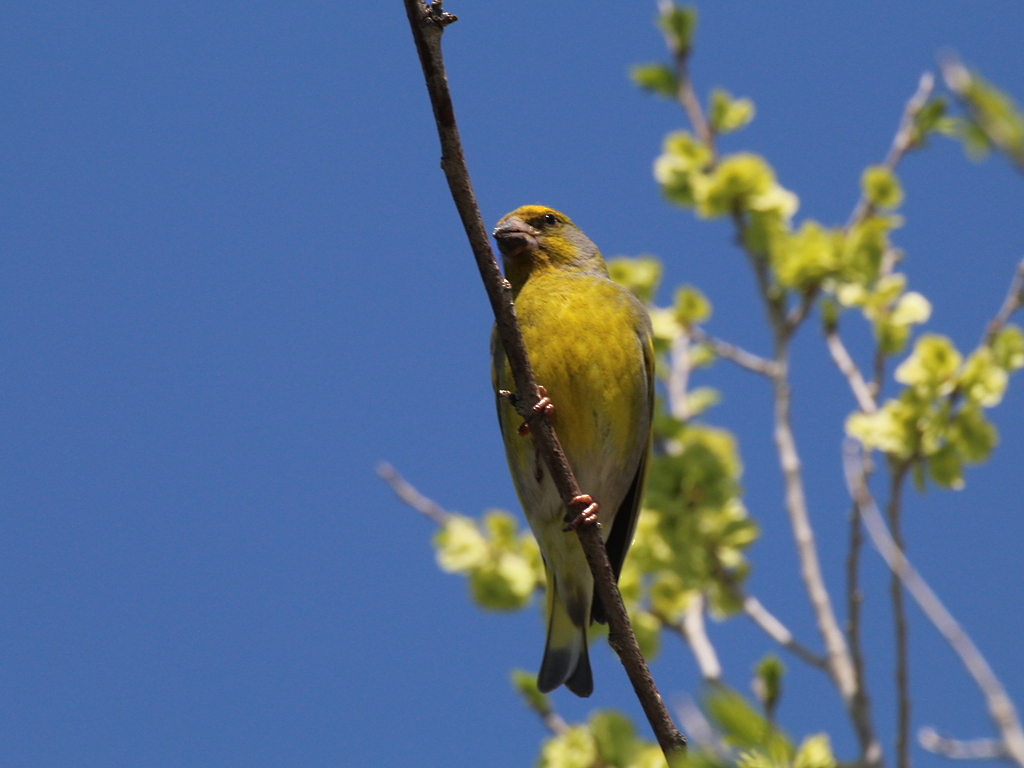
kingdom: Plantae
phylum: Tracheophyta
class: Liliopsida
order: Poales
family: Poaceae
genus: Chloris
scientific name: Chloris chloris
